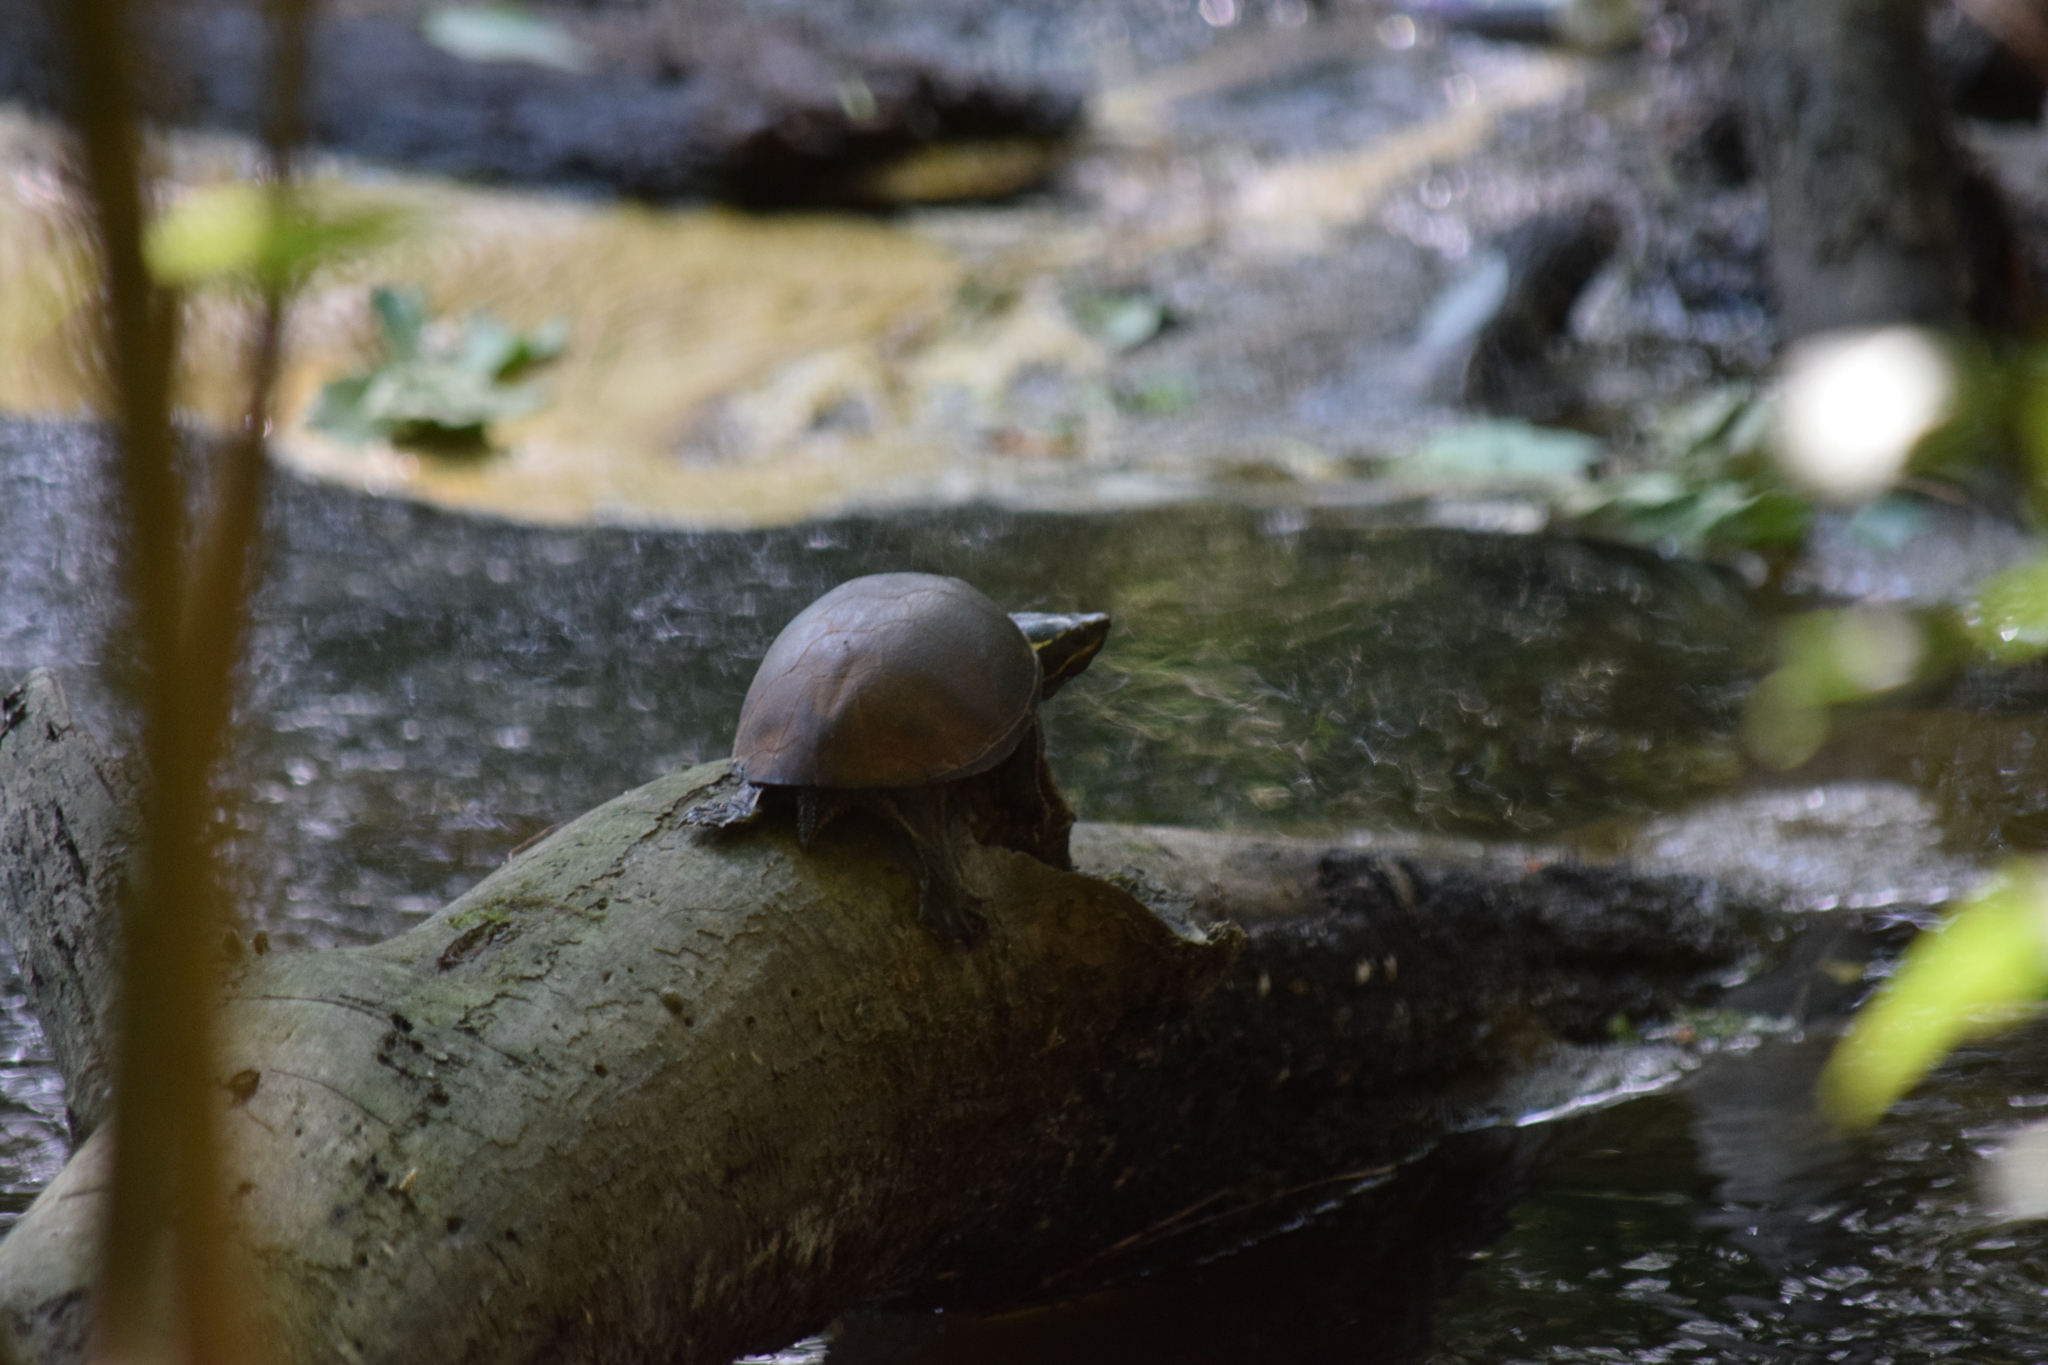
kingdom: Animalia
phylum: Chordata
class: Testudines
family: Kinosternidae
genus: Sternotherus
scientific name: Sternotherus odoratus
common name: Common musk turtle
